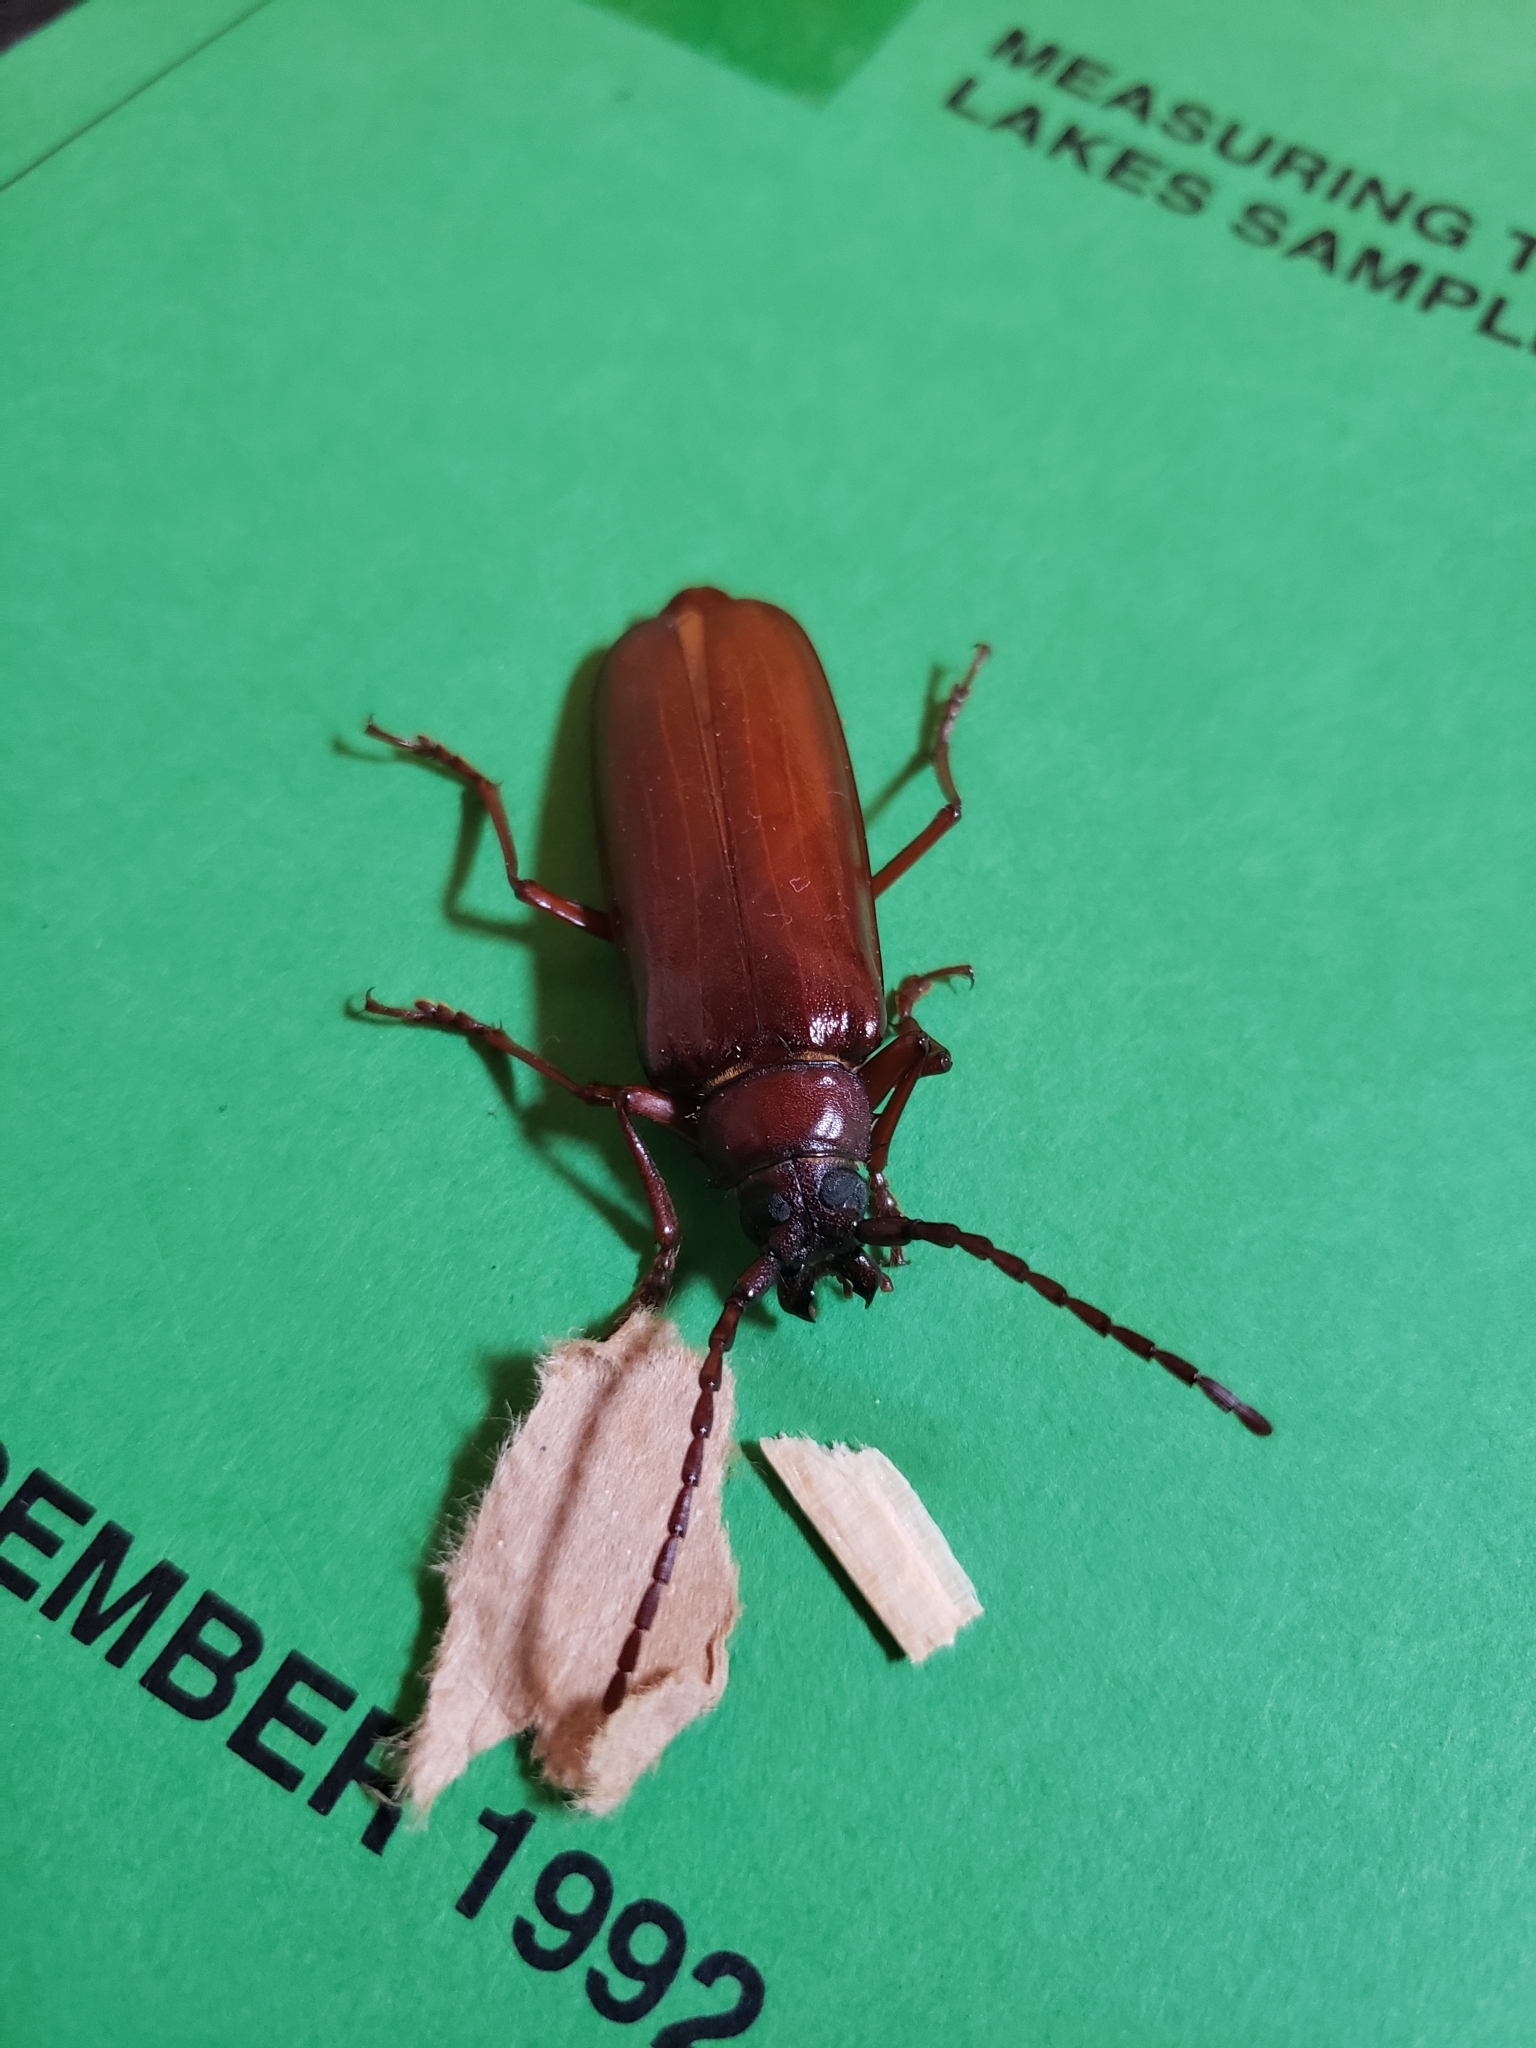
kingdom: Animalia
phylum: Arthropoda
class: Insecta
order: Coleoptera
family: Cerambycidae
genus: Orthosoma
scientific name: Orthosoma brunneum
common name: Brown prionid beetle
